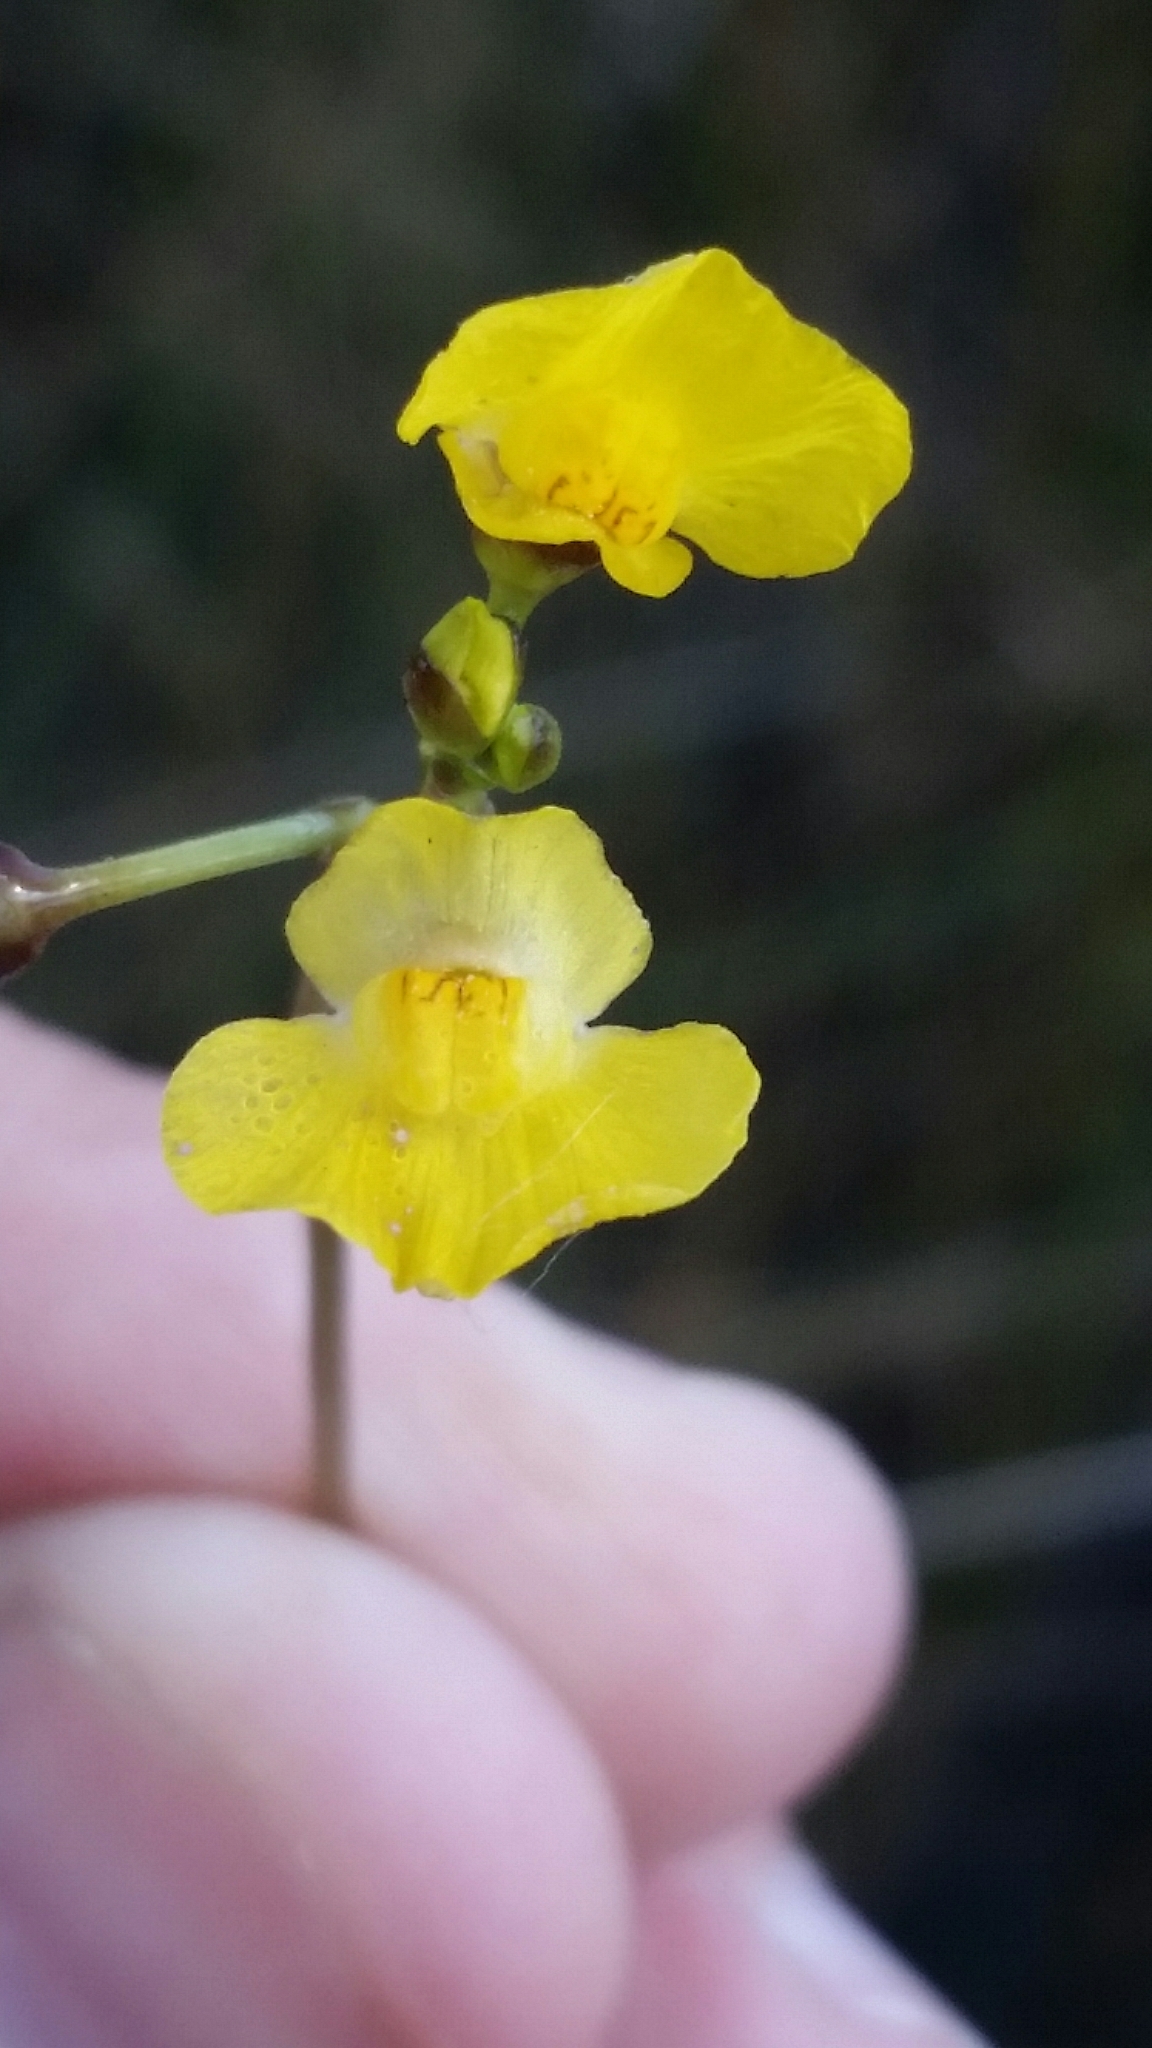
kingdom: Plantae
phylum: Tracheophyta
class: Magnoliopsida
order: Lamiales
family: Lentibulariaceae
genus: Utricularia
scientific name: Utricularia foliosa
